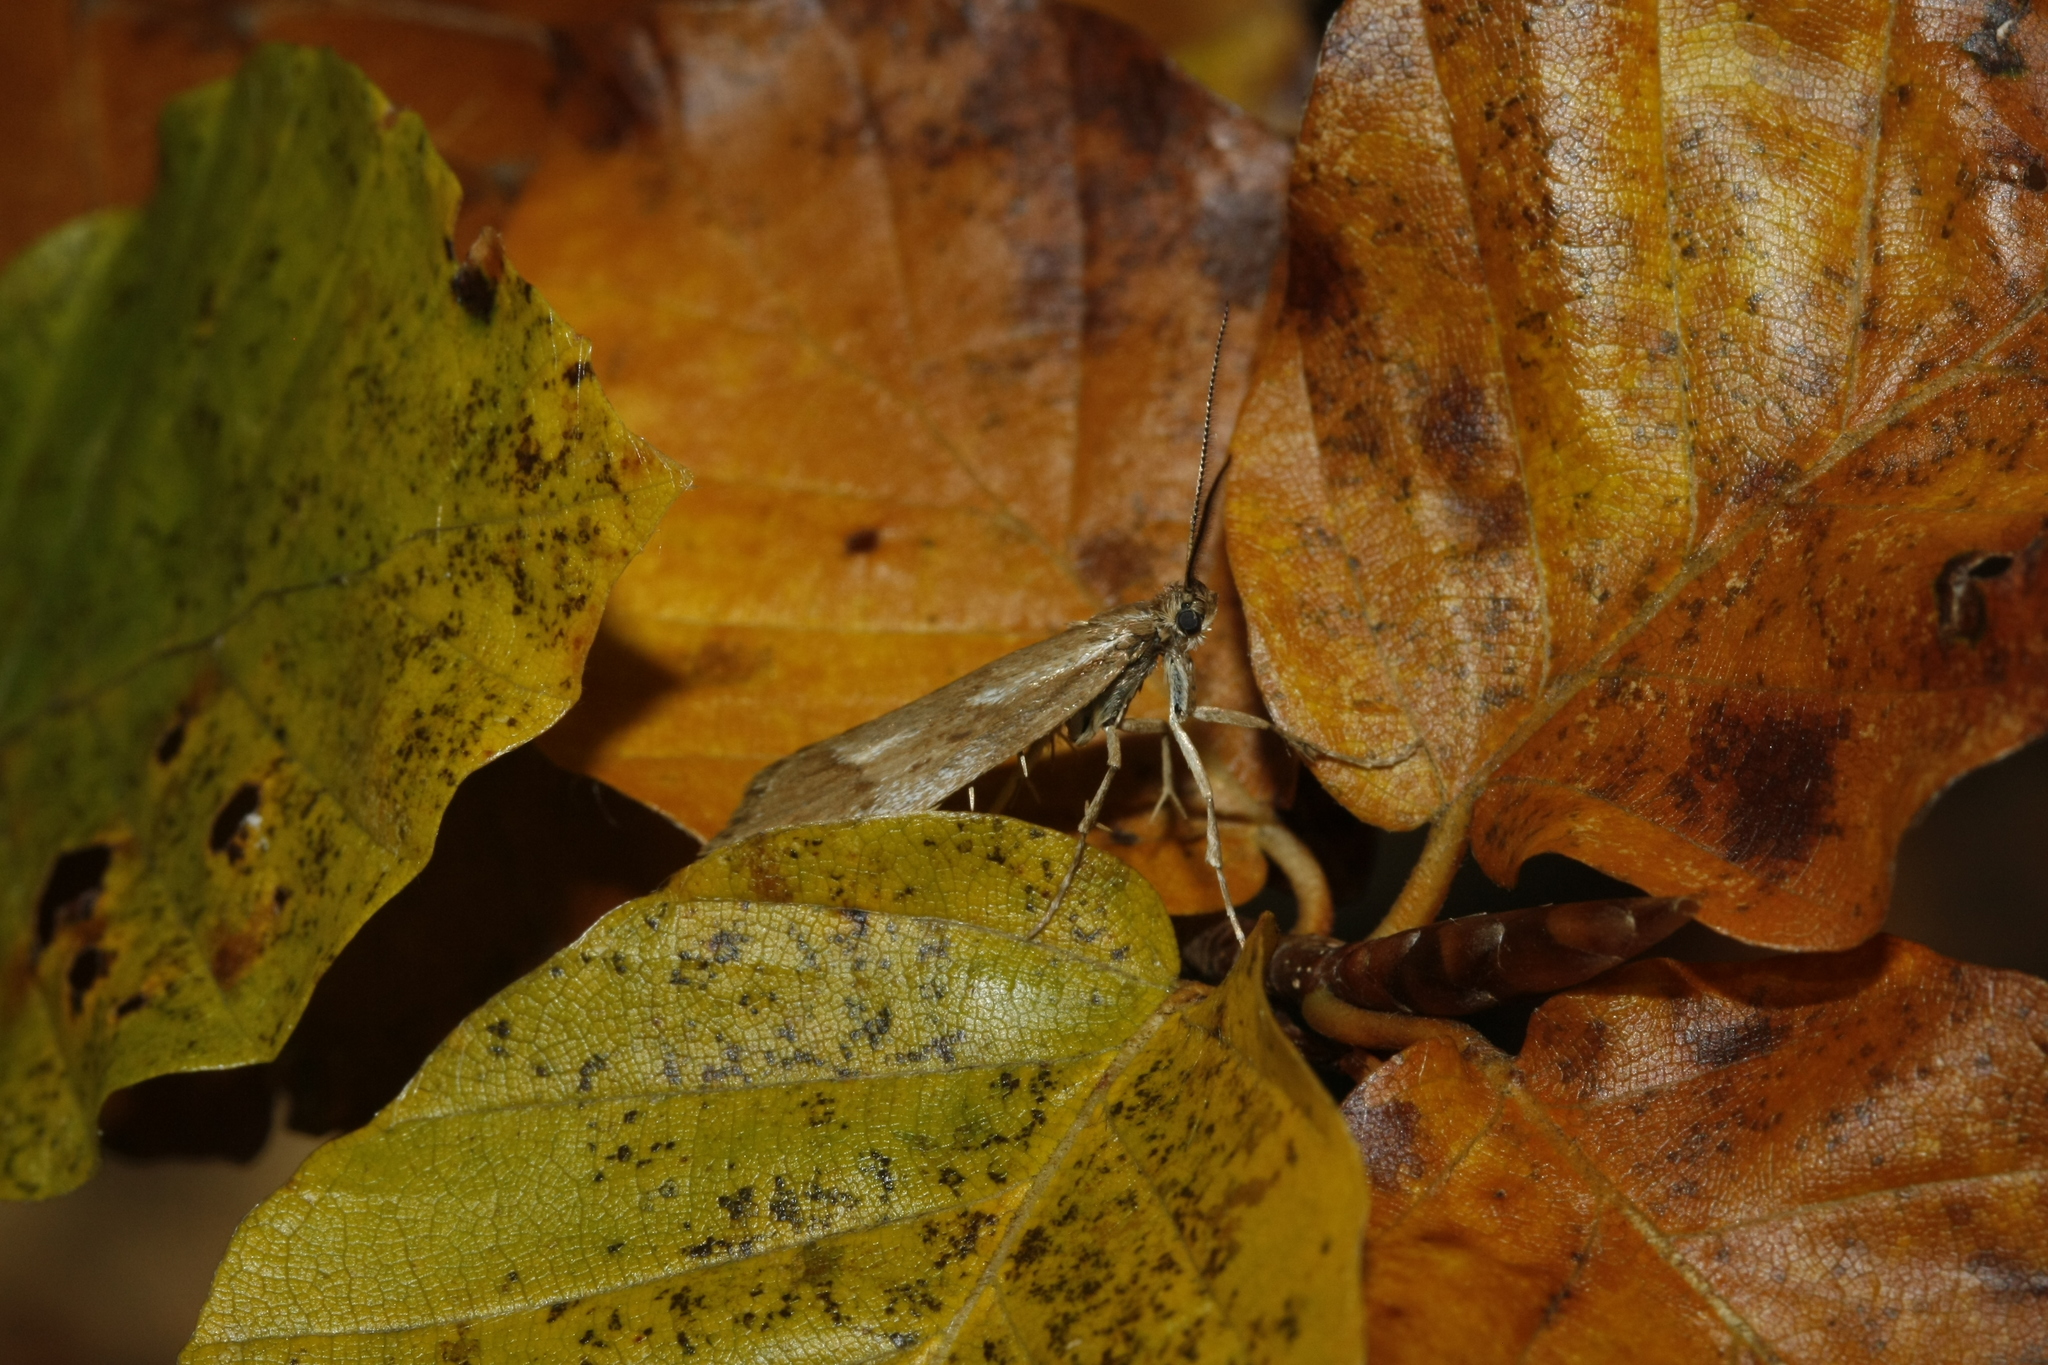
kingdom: Animalia
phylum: Arthropoda
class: Insecta
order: Lepidoptera
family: Lypusidae
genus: Diurnea
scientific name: Diurnea lipsiella
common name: November tubic
